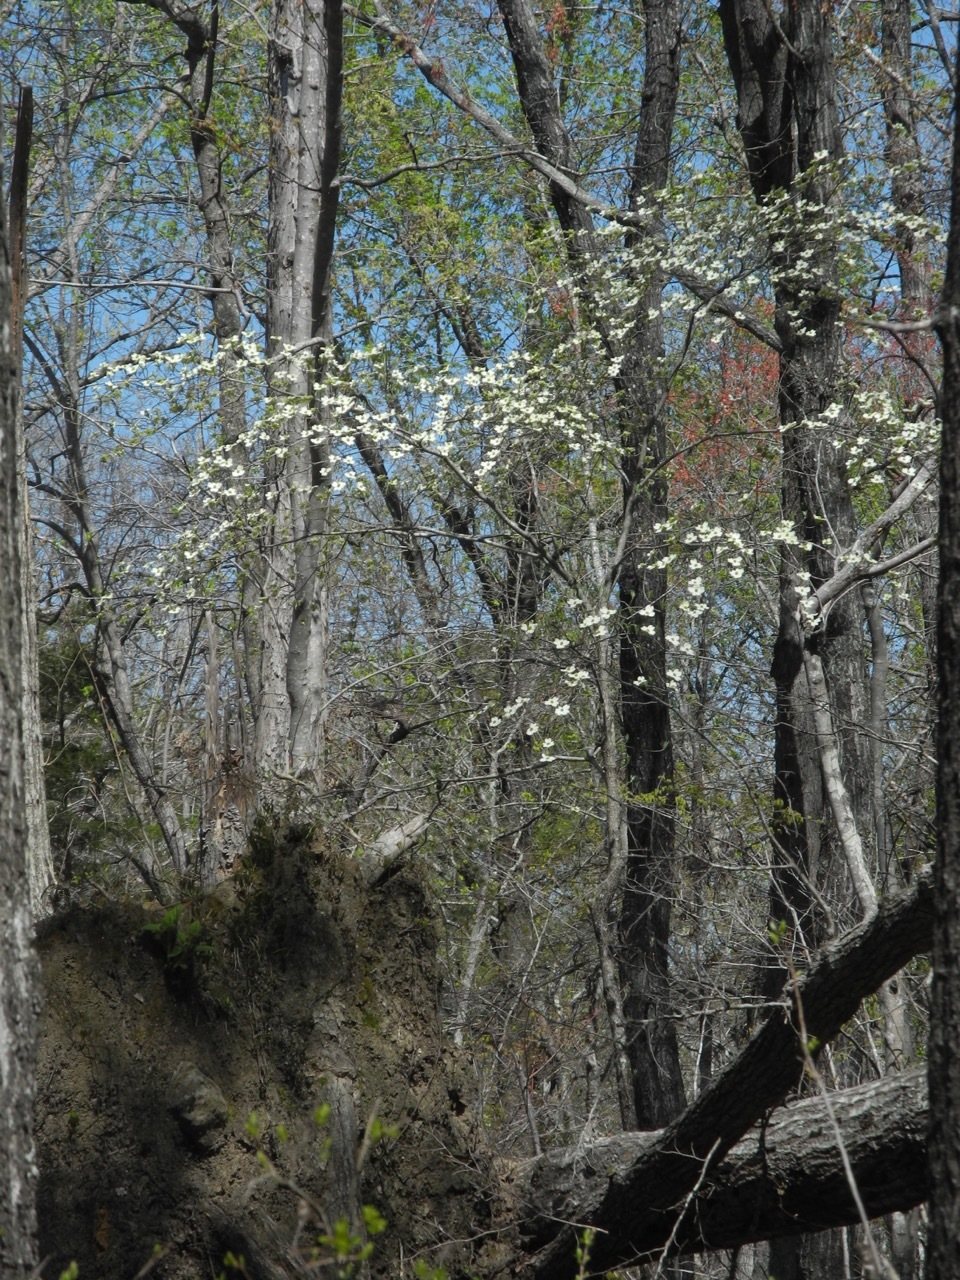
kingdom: Plantae
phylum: Tracheophyta
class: Magnoliopsida
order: Cornales
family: Cornaceae
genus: Cornus
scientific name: Cornus florida
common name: Flowering dogwood
